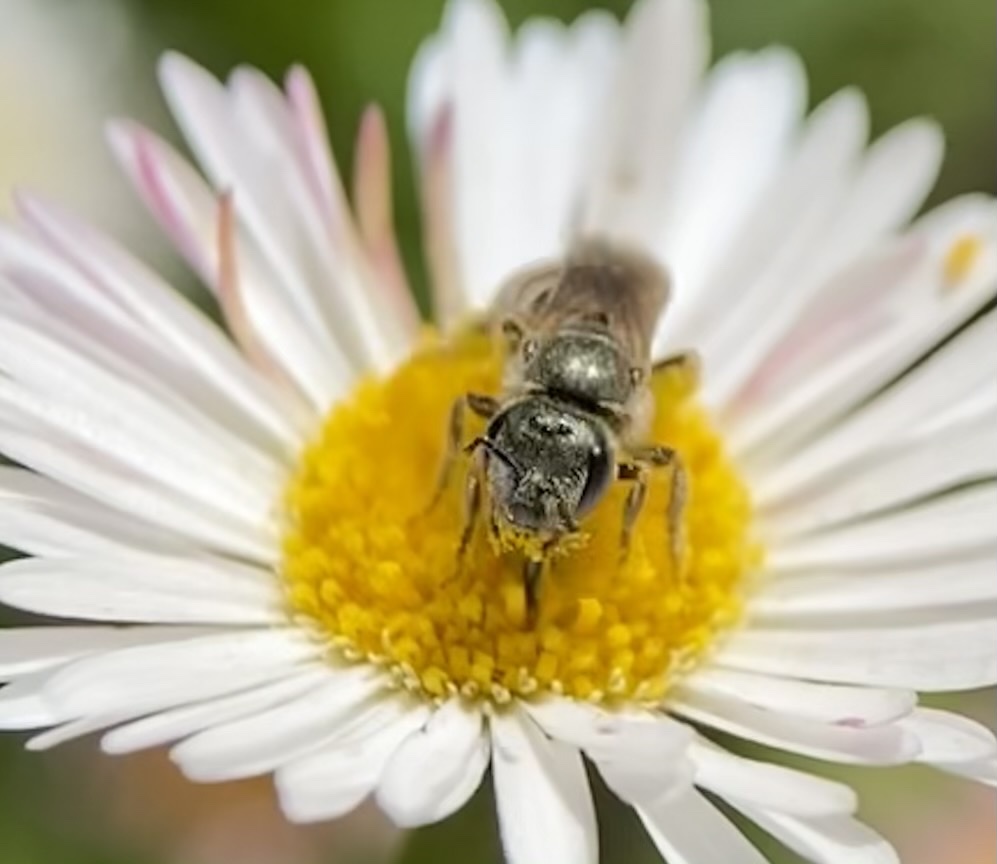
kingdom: Animalia
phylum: Arthropoda
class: Insecta
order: Hymenoptera
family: Halictidae
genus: Halictus
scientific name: Halictus tripartitus
